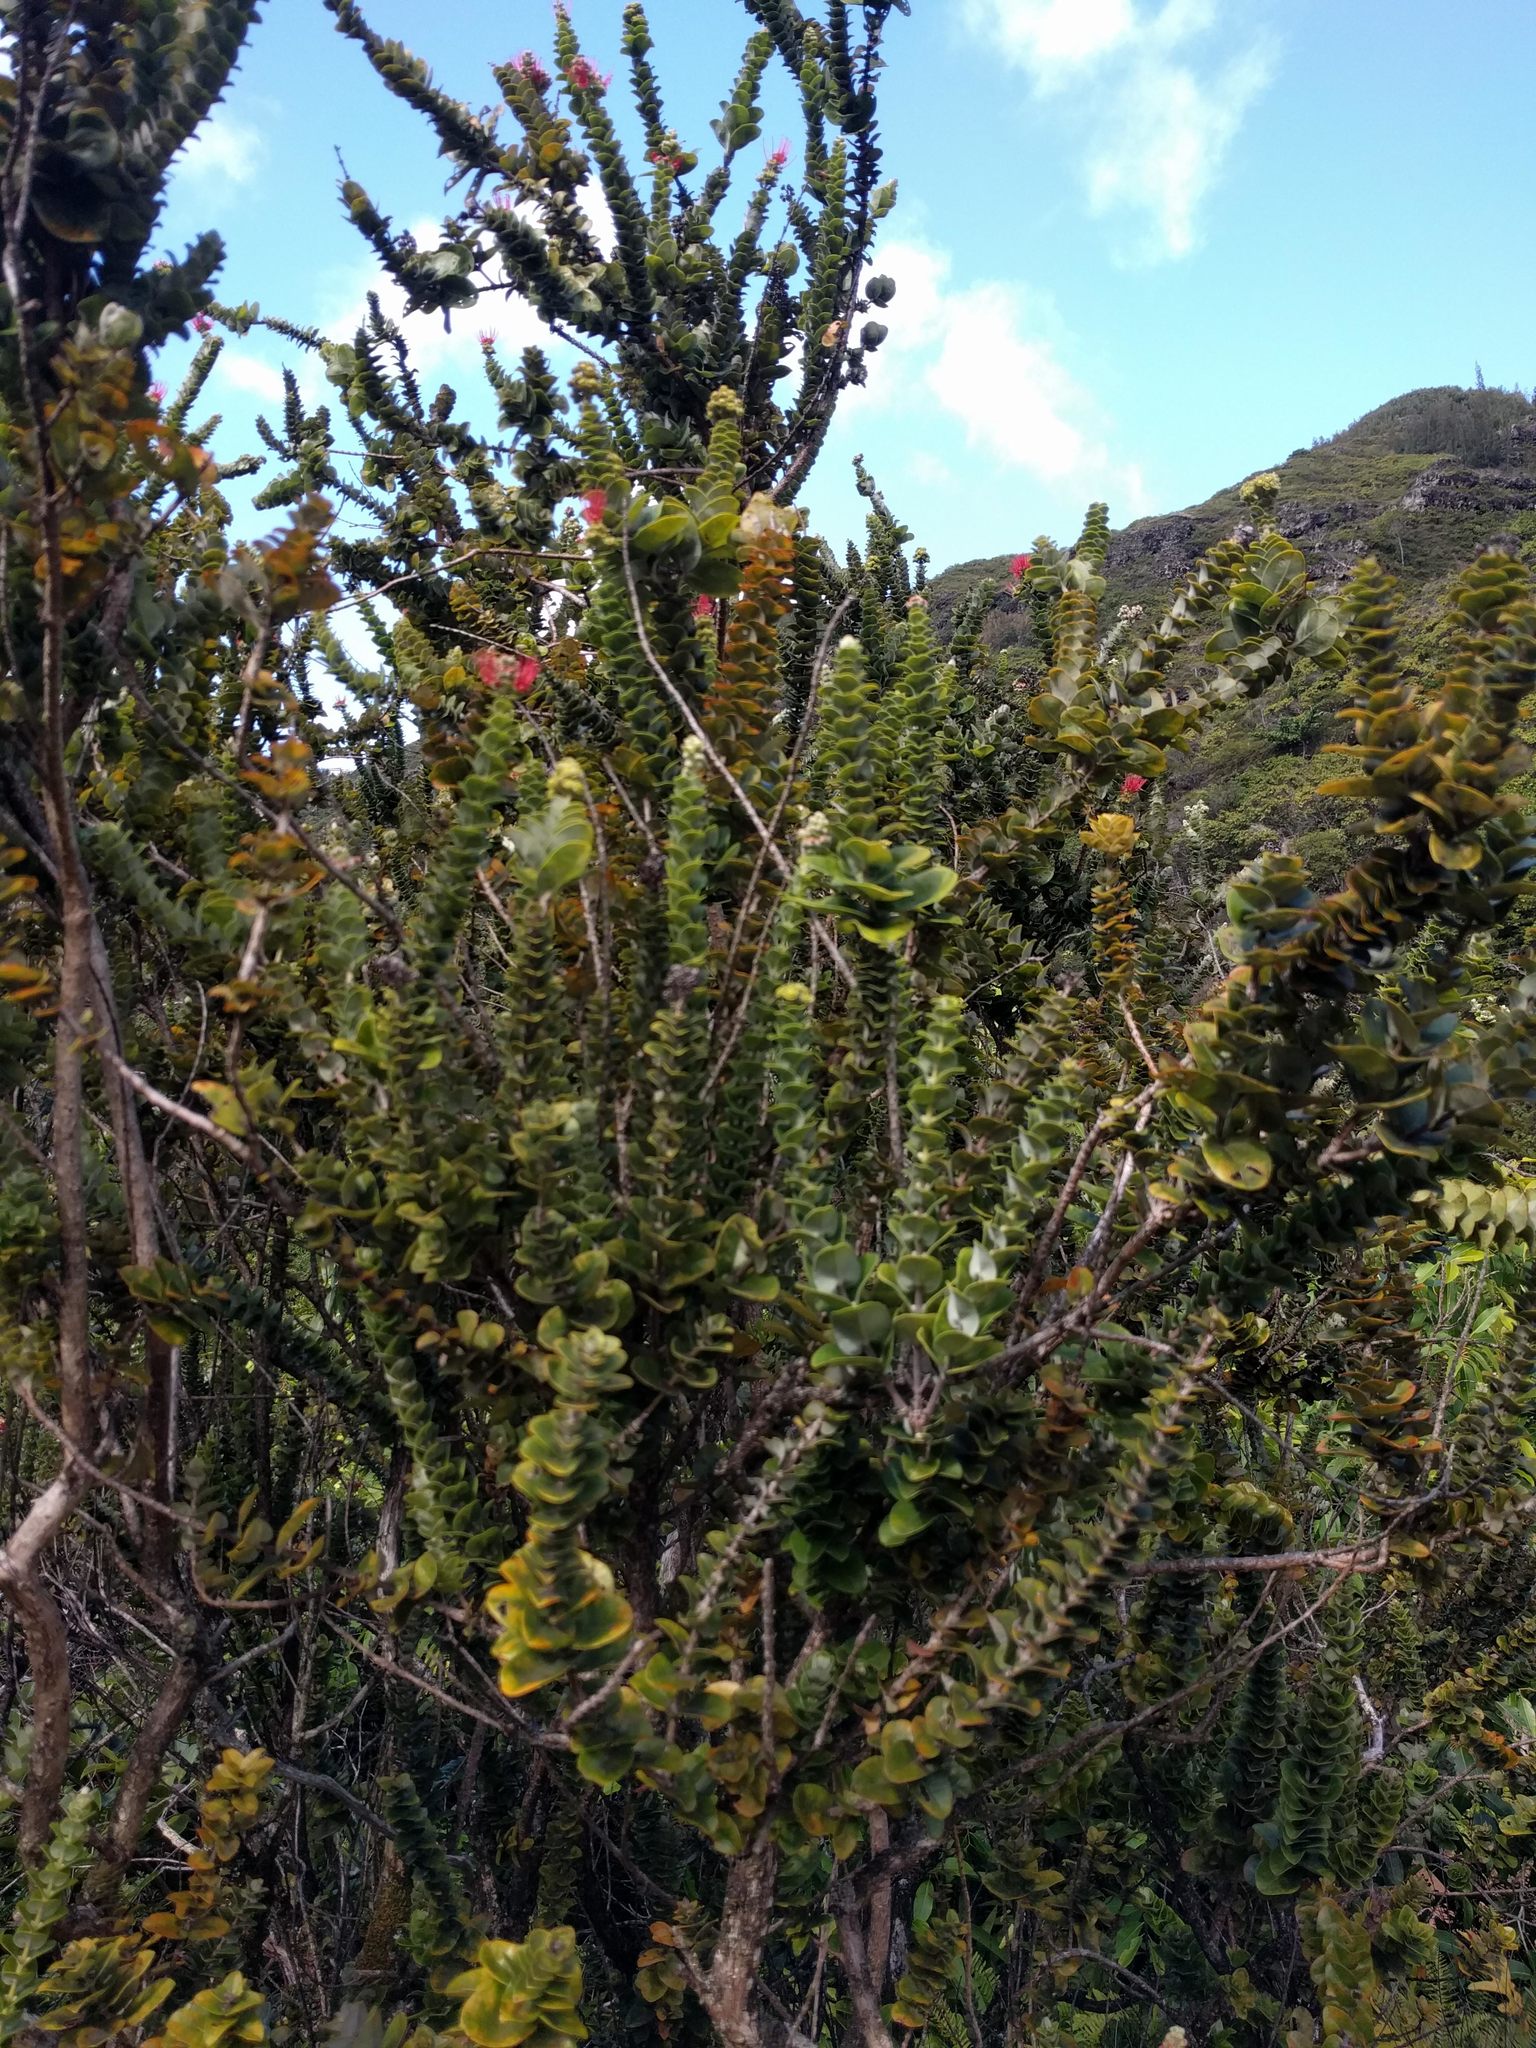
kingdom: Plantae
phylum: Tracheophyta
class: Magnoliopsida
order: Myrtales
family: Myrtaceae
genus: Metrosideros
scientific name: Metrosideros polymorpha
